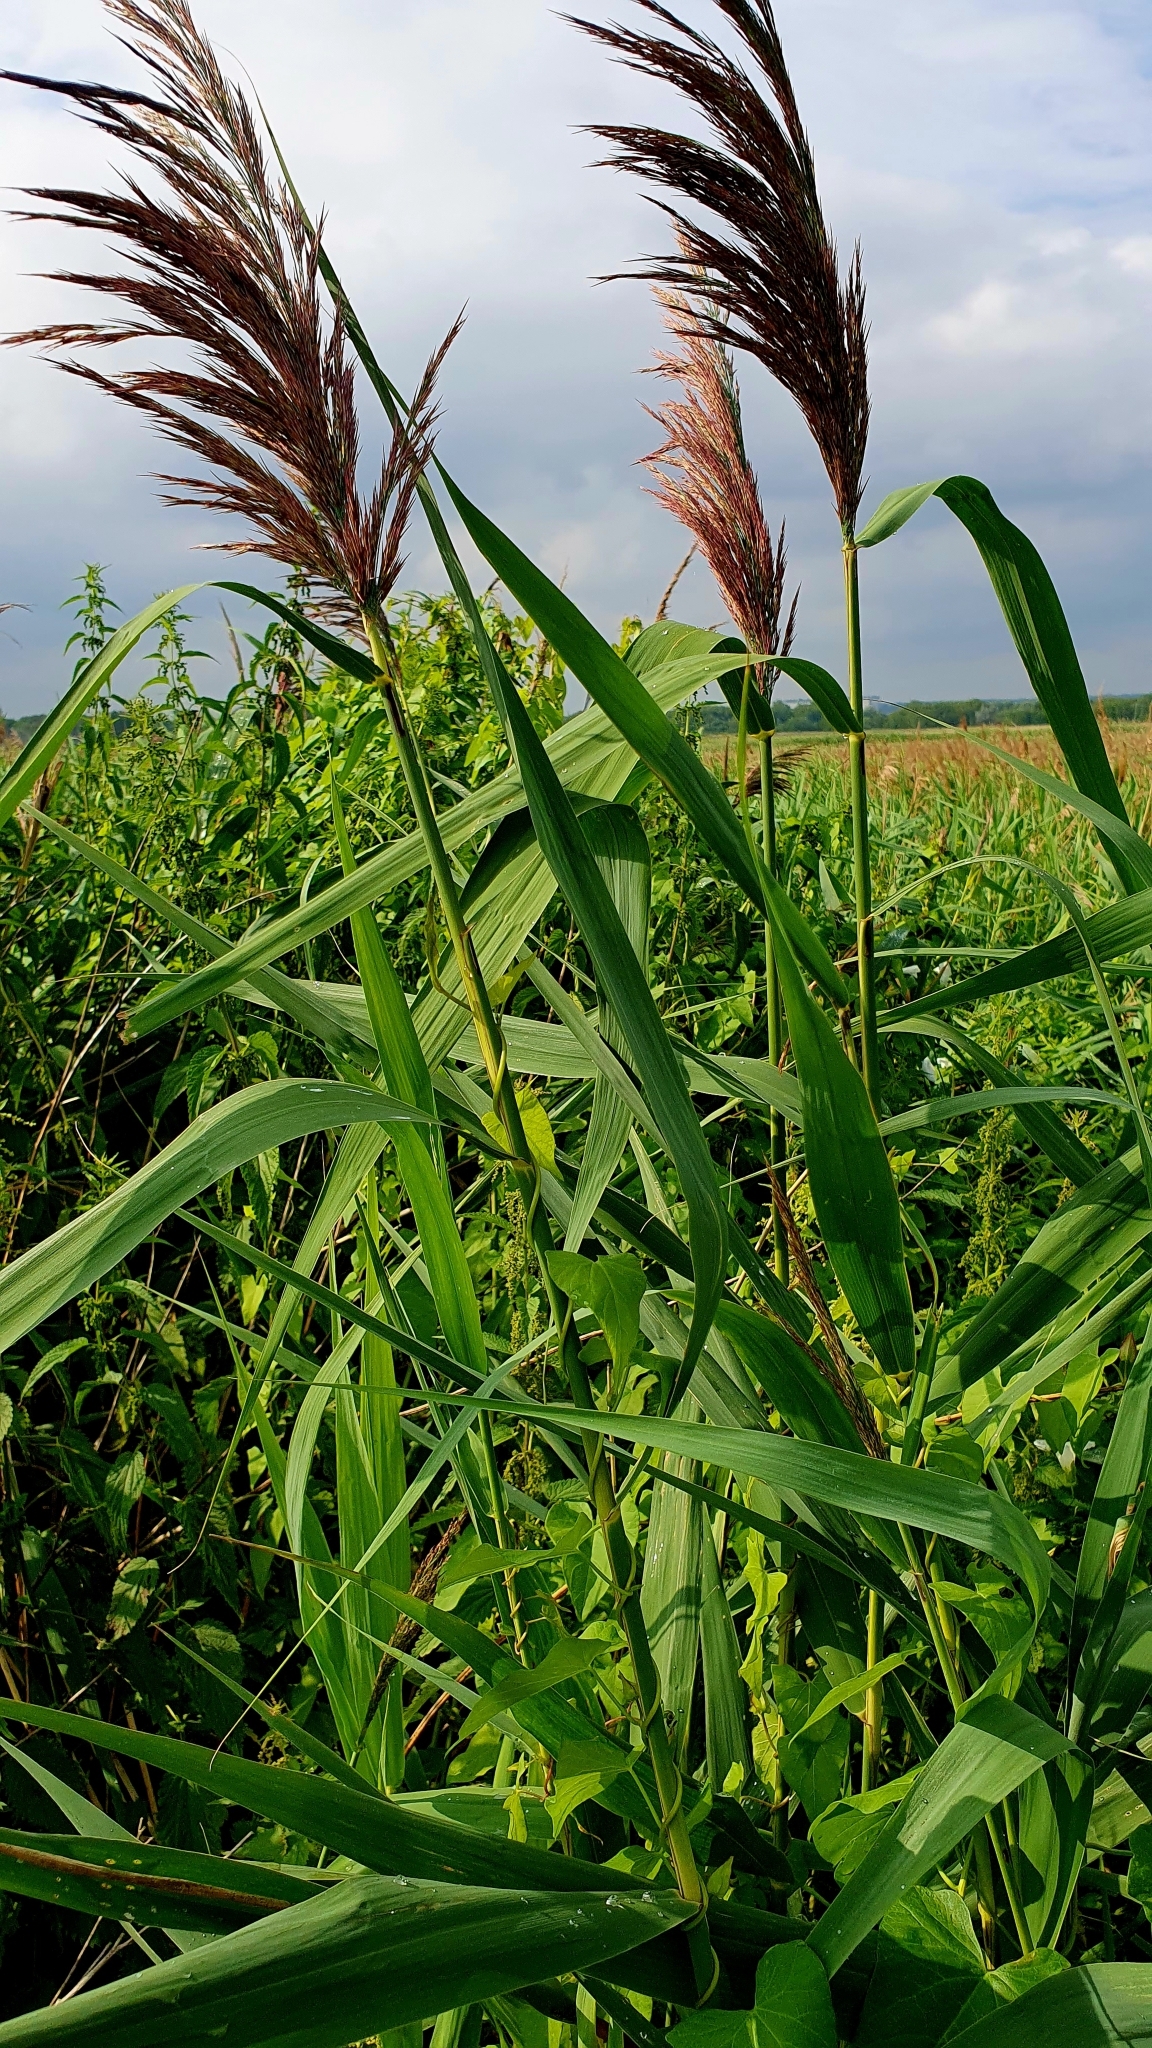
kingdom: Plantae
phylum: Tracheophyta
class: Liliopsida
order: Poales
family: Poaceae
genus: Phragmites
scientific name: Phragmites australis
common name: Common reed
